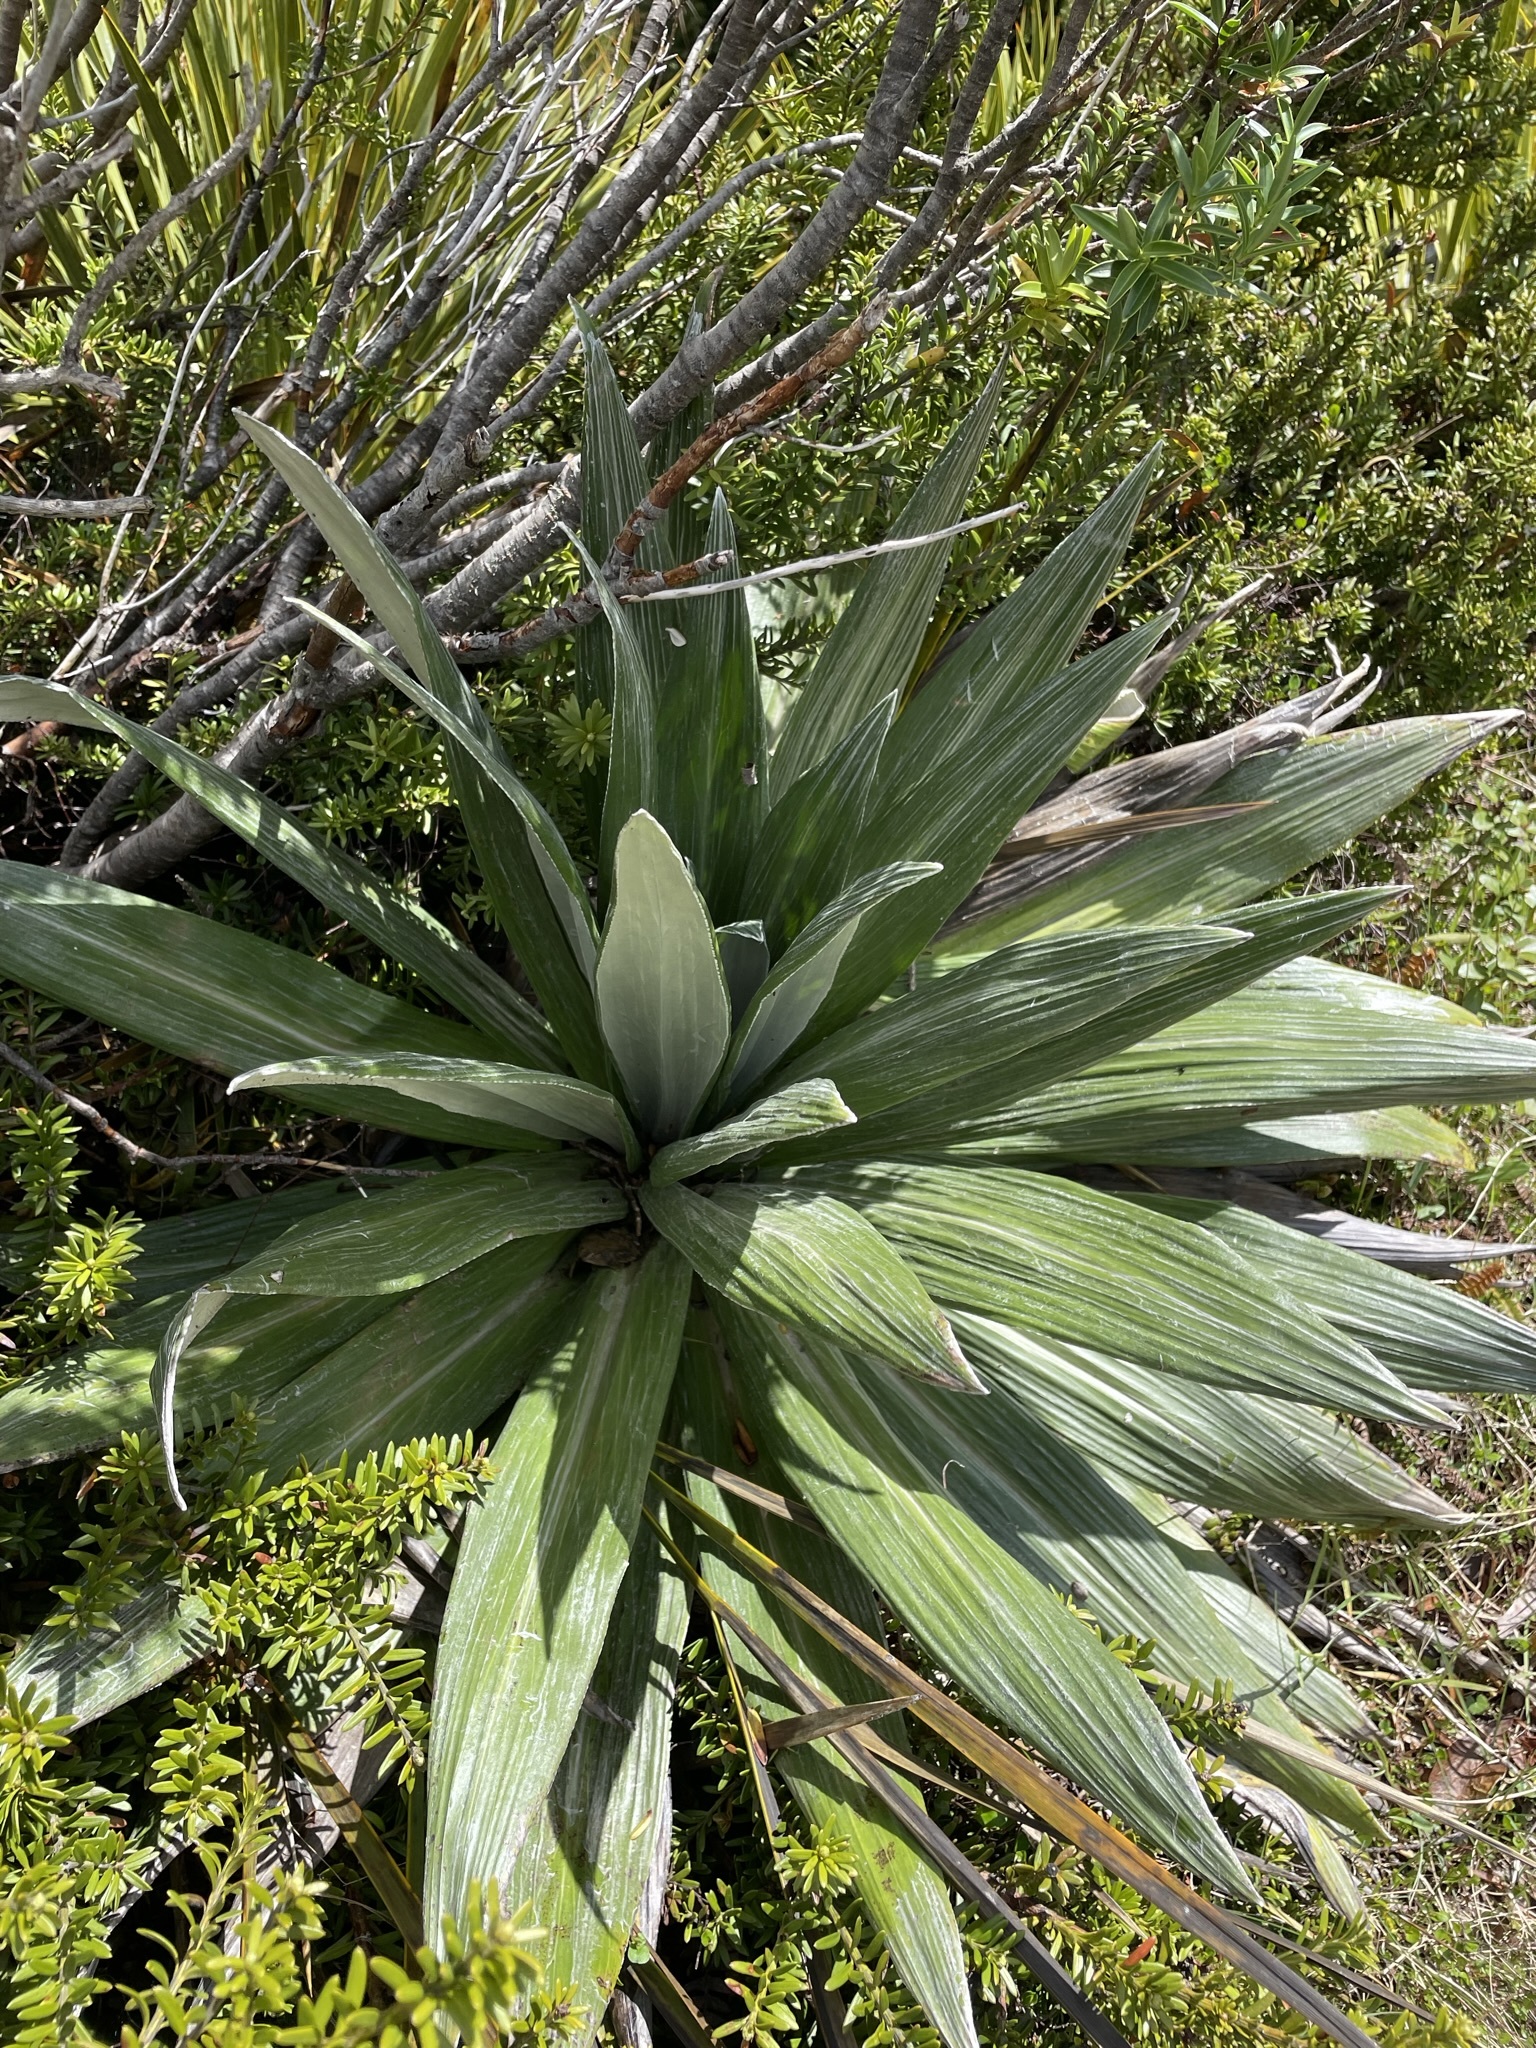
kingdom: Plantae
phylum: Tracheophyta
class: Magnoliopsida
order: Asterales
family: Asteraceae
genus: Celmisia
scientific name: Celmisia semicordata
